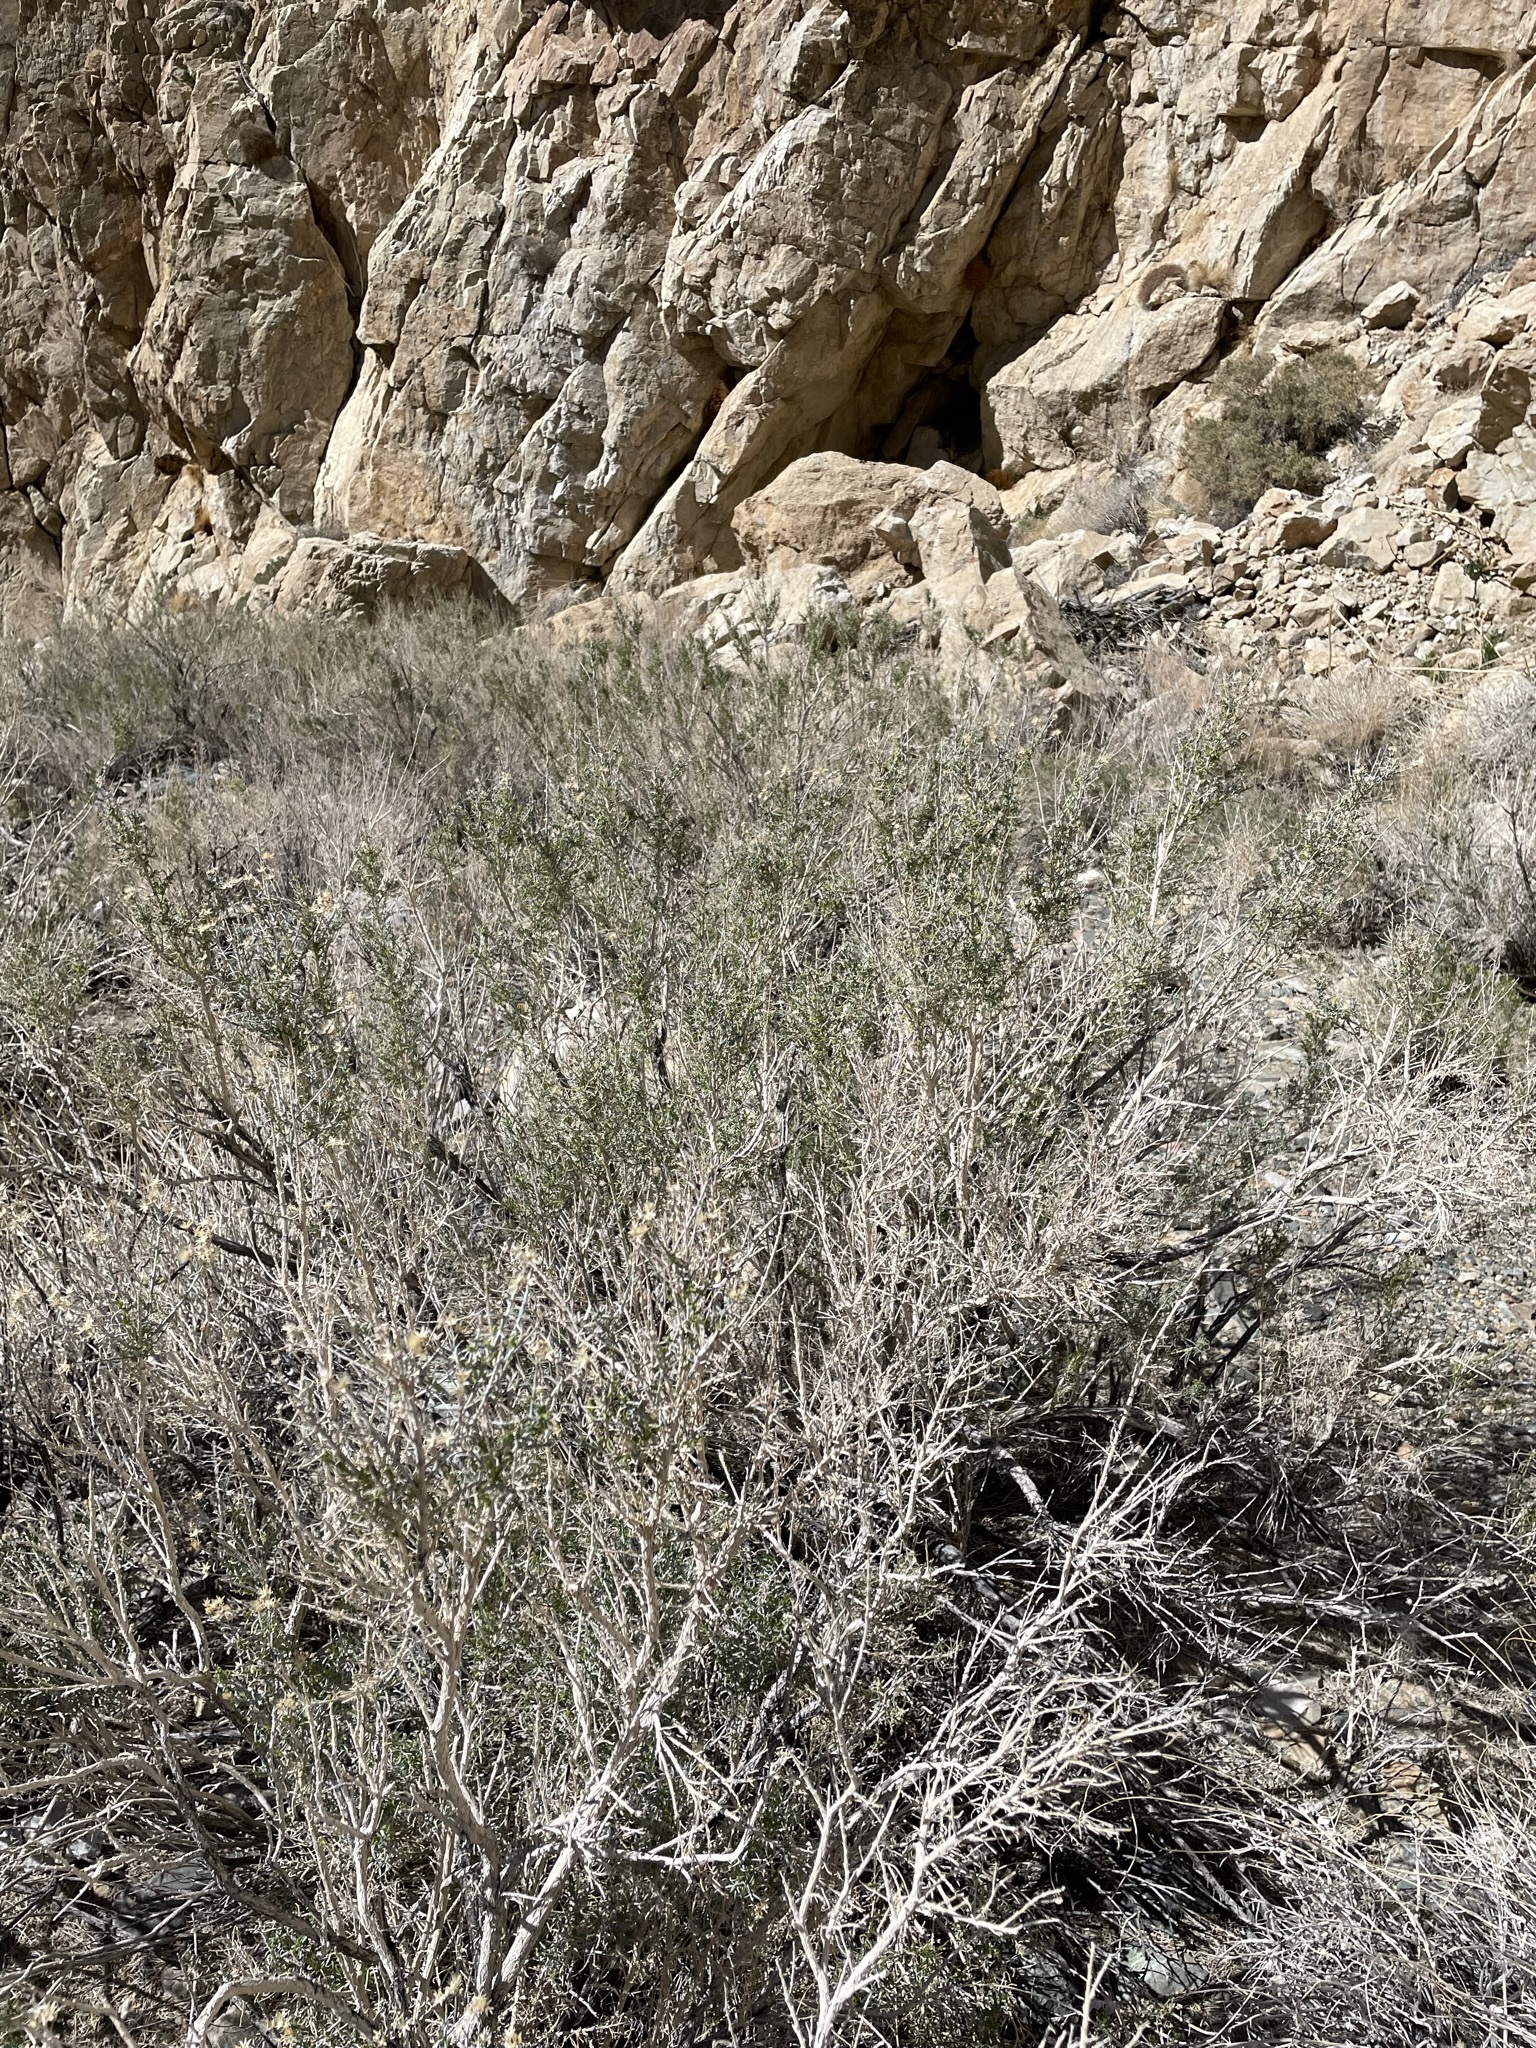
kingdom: Plantae
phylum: Tracheophyta
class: Magnoliopsida
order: Asterales
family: Asteraceae
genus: Ericameria
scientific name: Ericameria paniculata
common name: Punctate rabbitbrush
